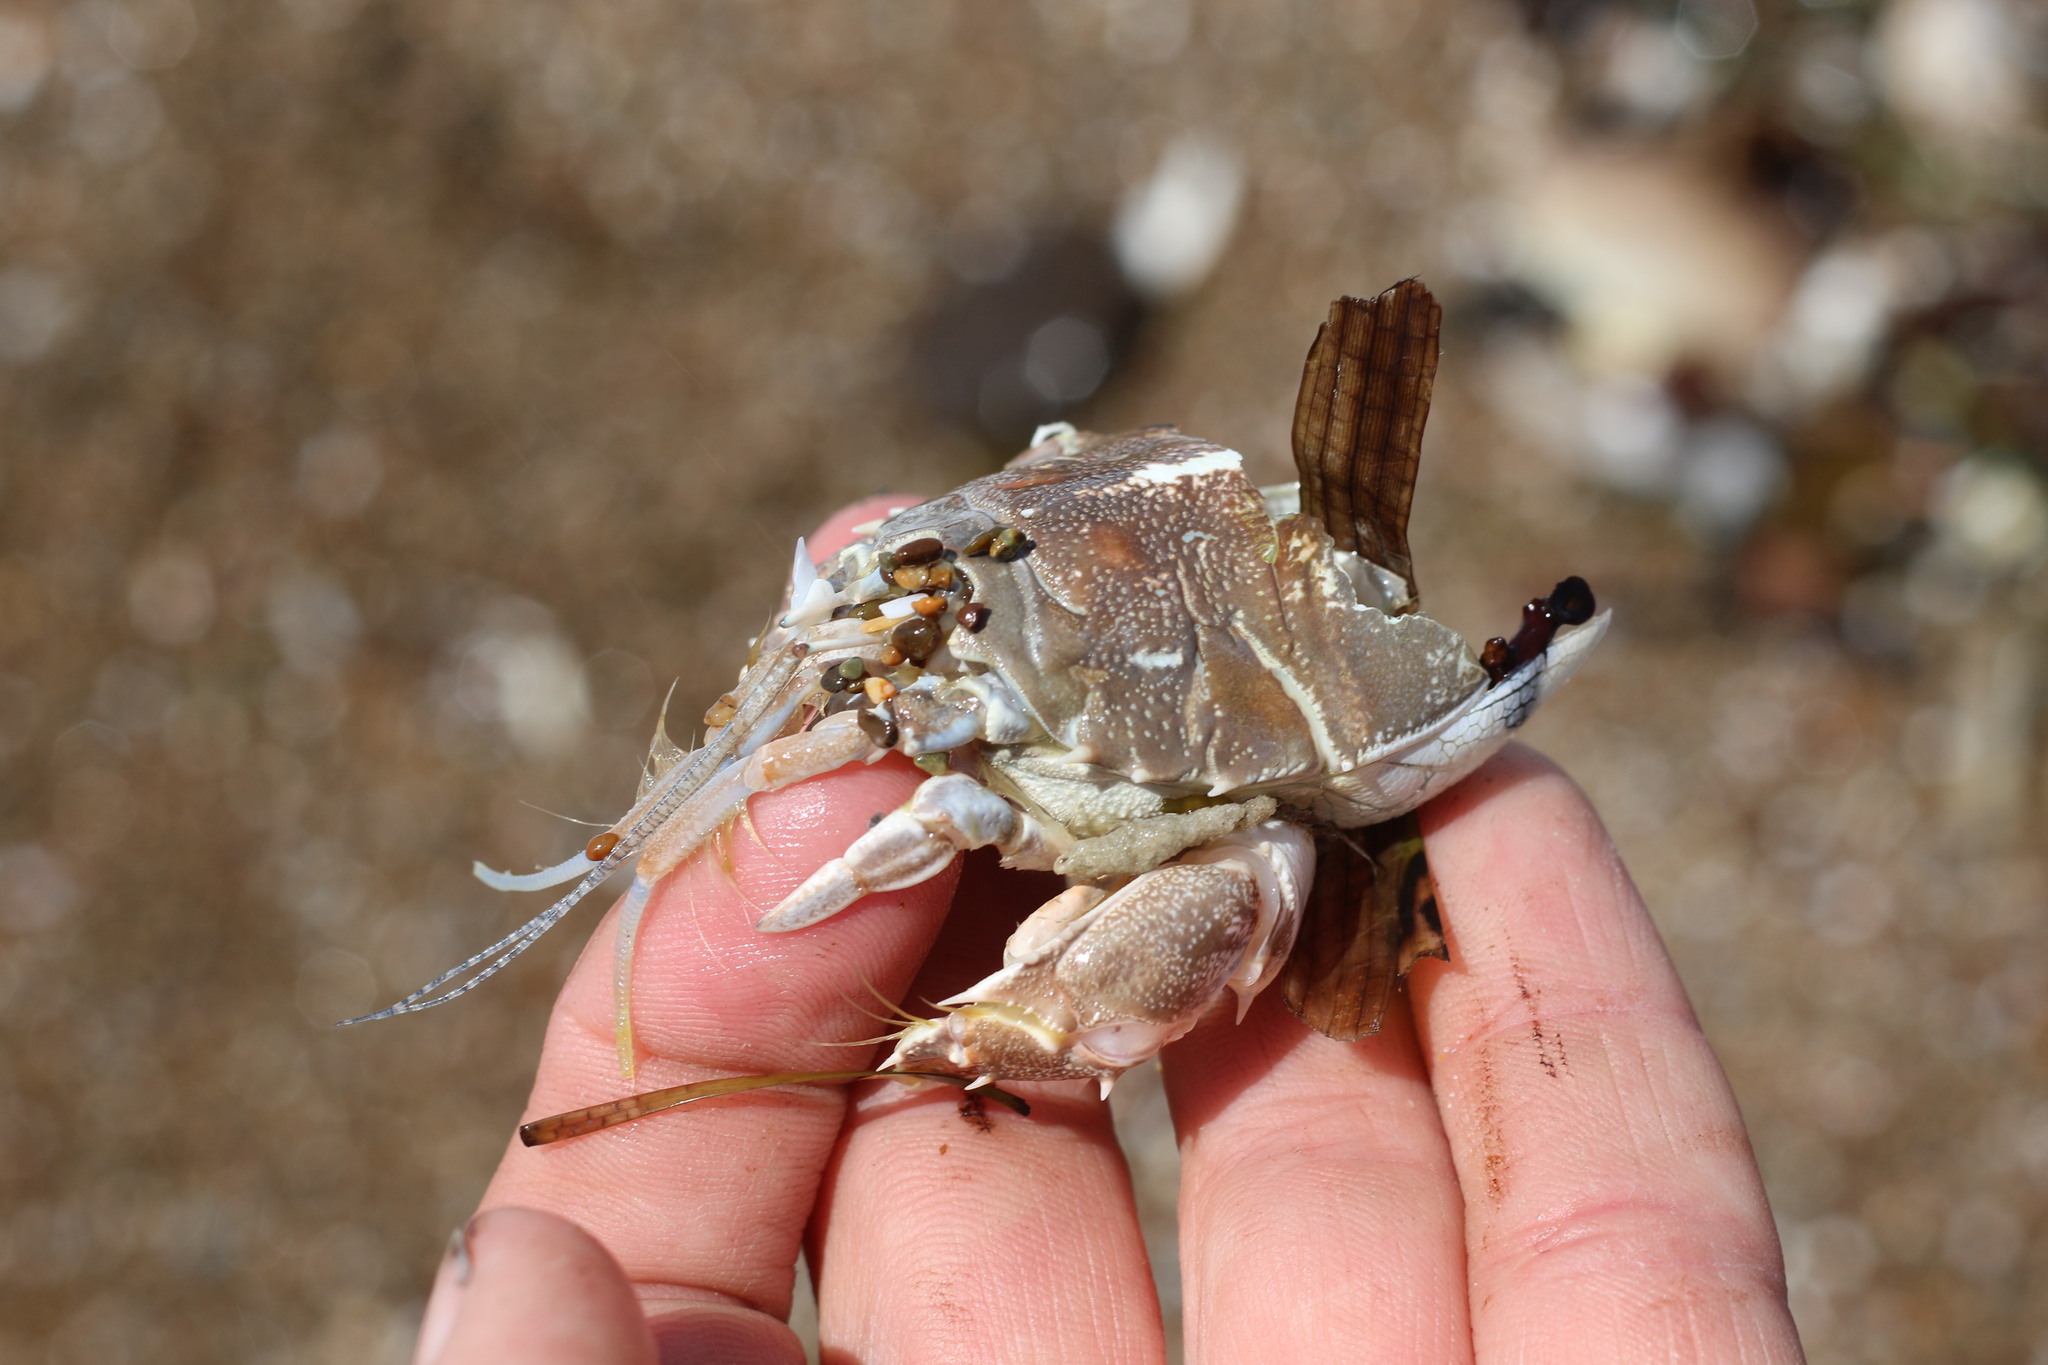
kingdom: Animalia
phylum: Arthropoda
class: Malacostraca
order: Decapoda
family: Blepharipodidae
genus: Blepharipoda
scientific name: Blepharipoda occidentalis
